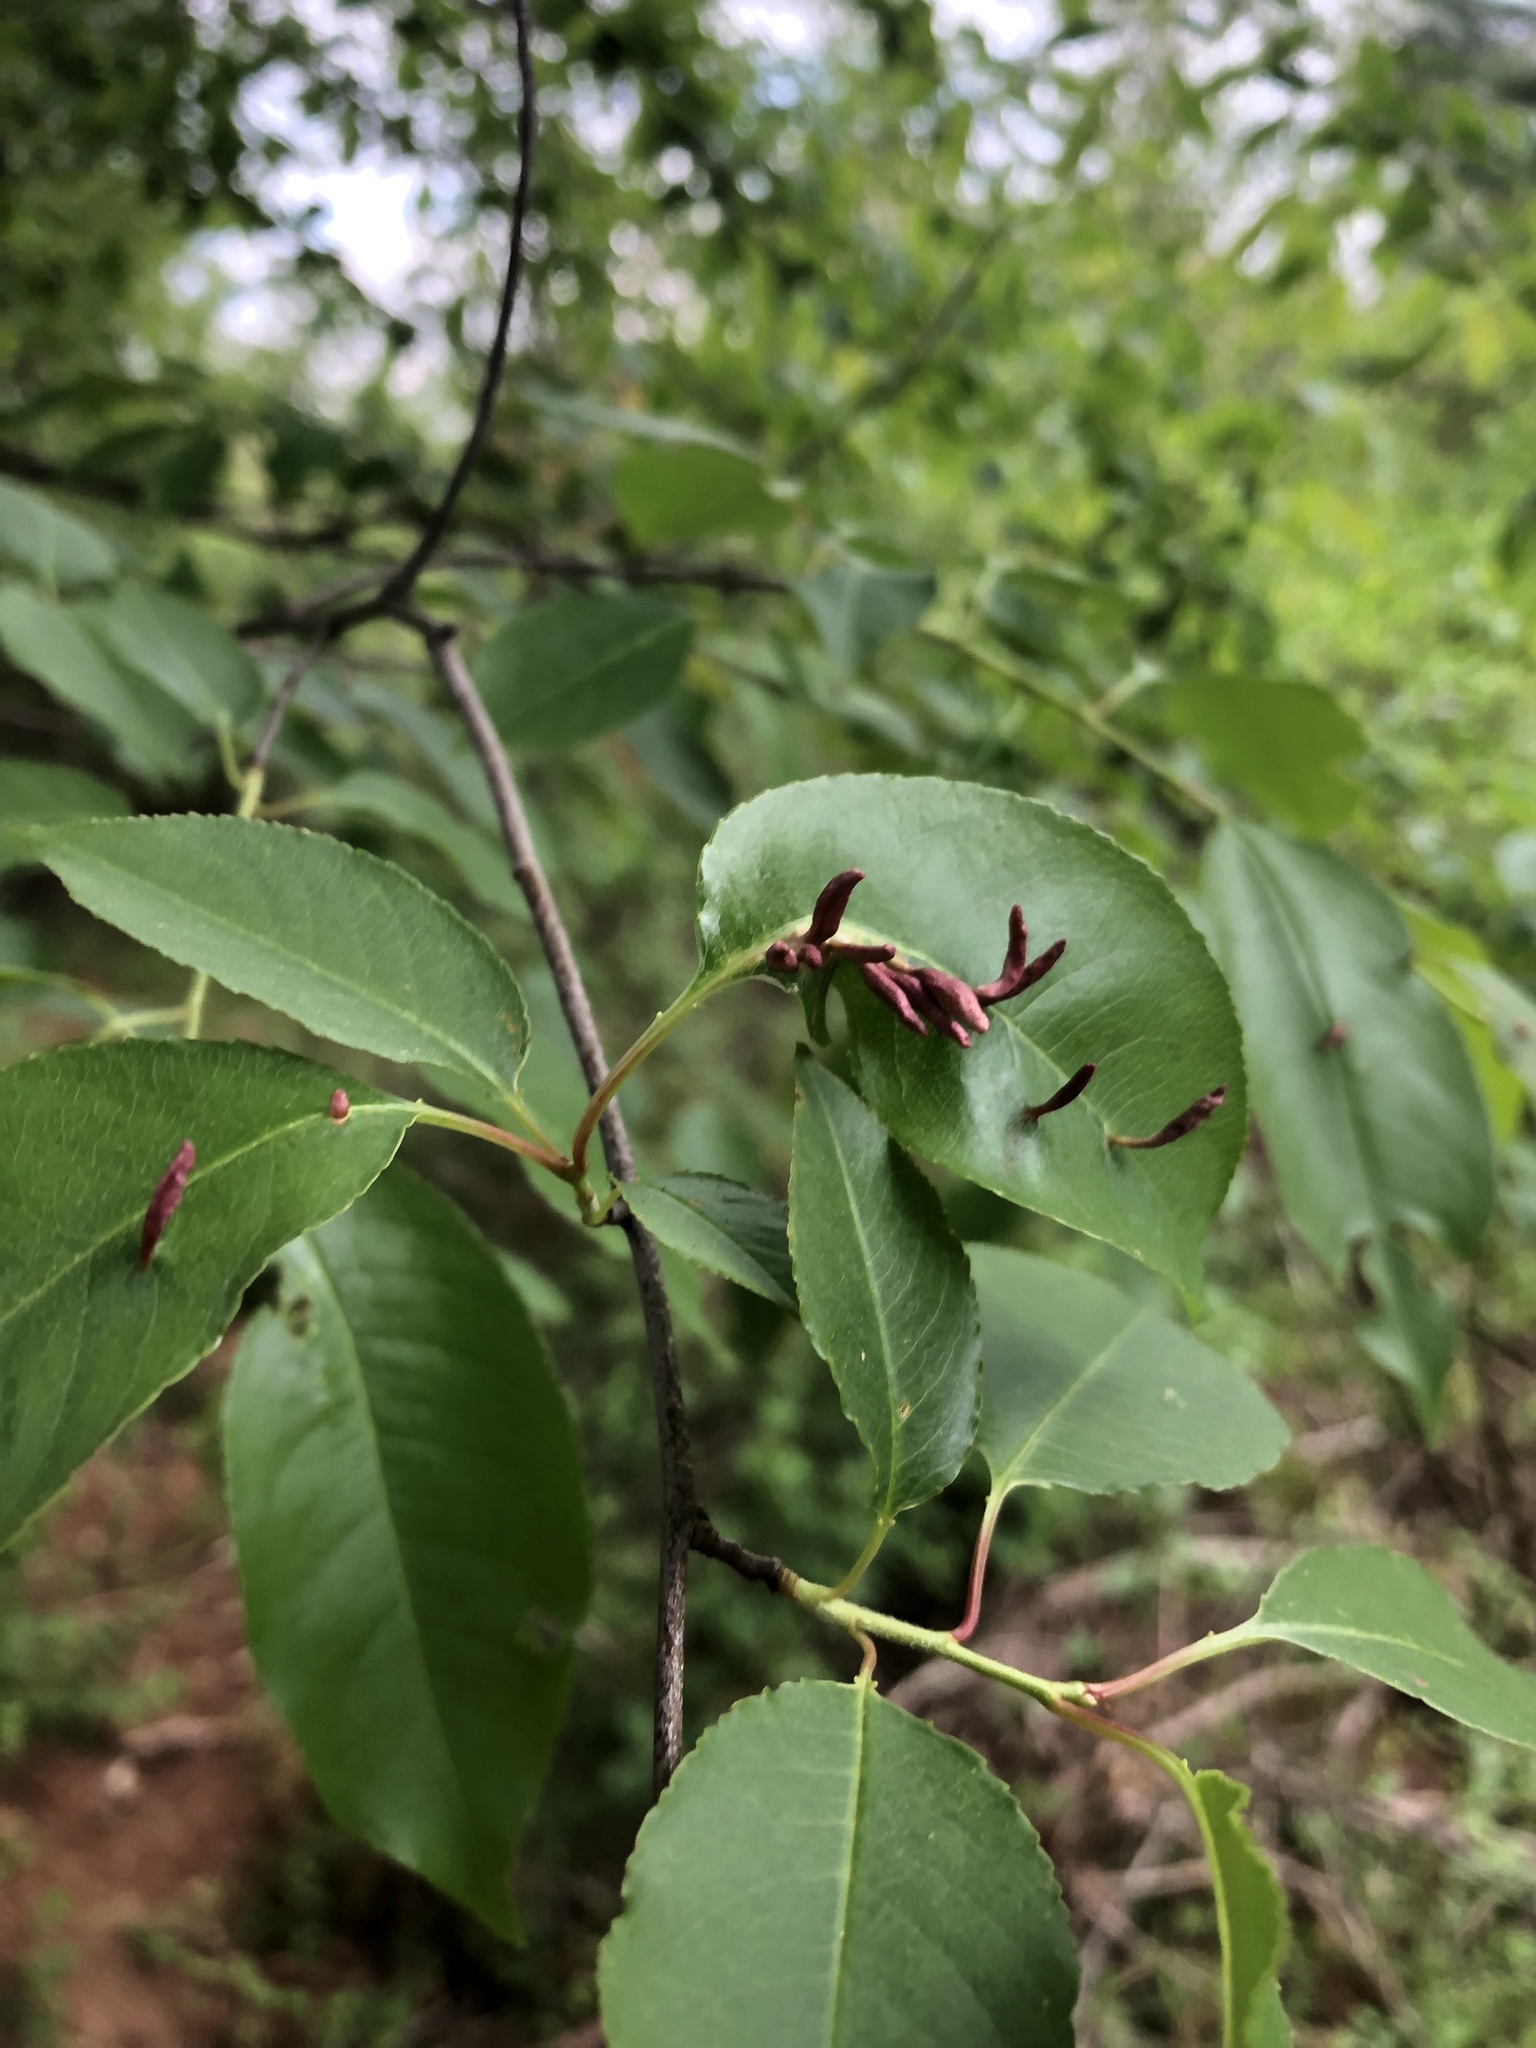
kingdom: Animalia
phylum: Arthropoda
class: Arachnida
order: Trombidiformes
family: Eriophyidae
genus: Eriophyes
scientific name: Eriophyes
